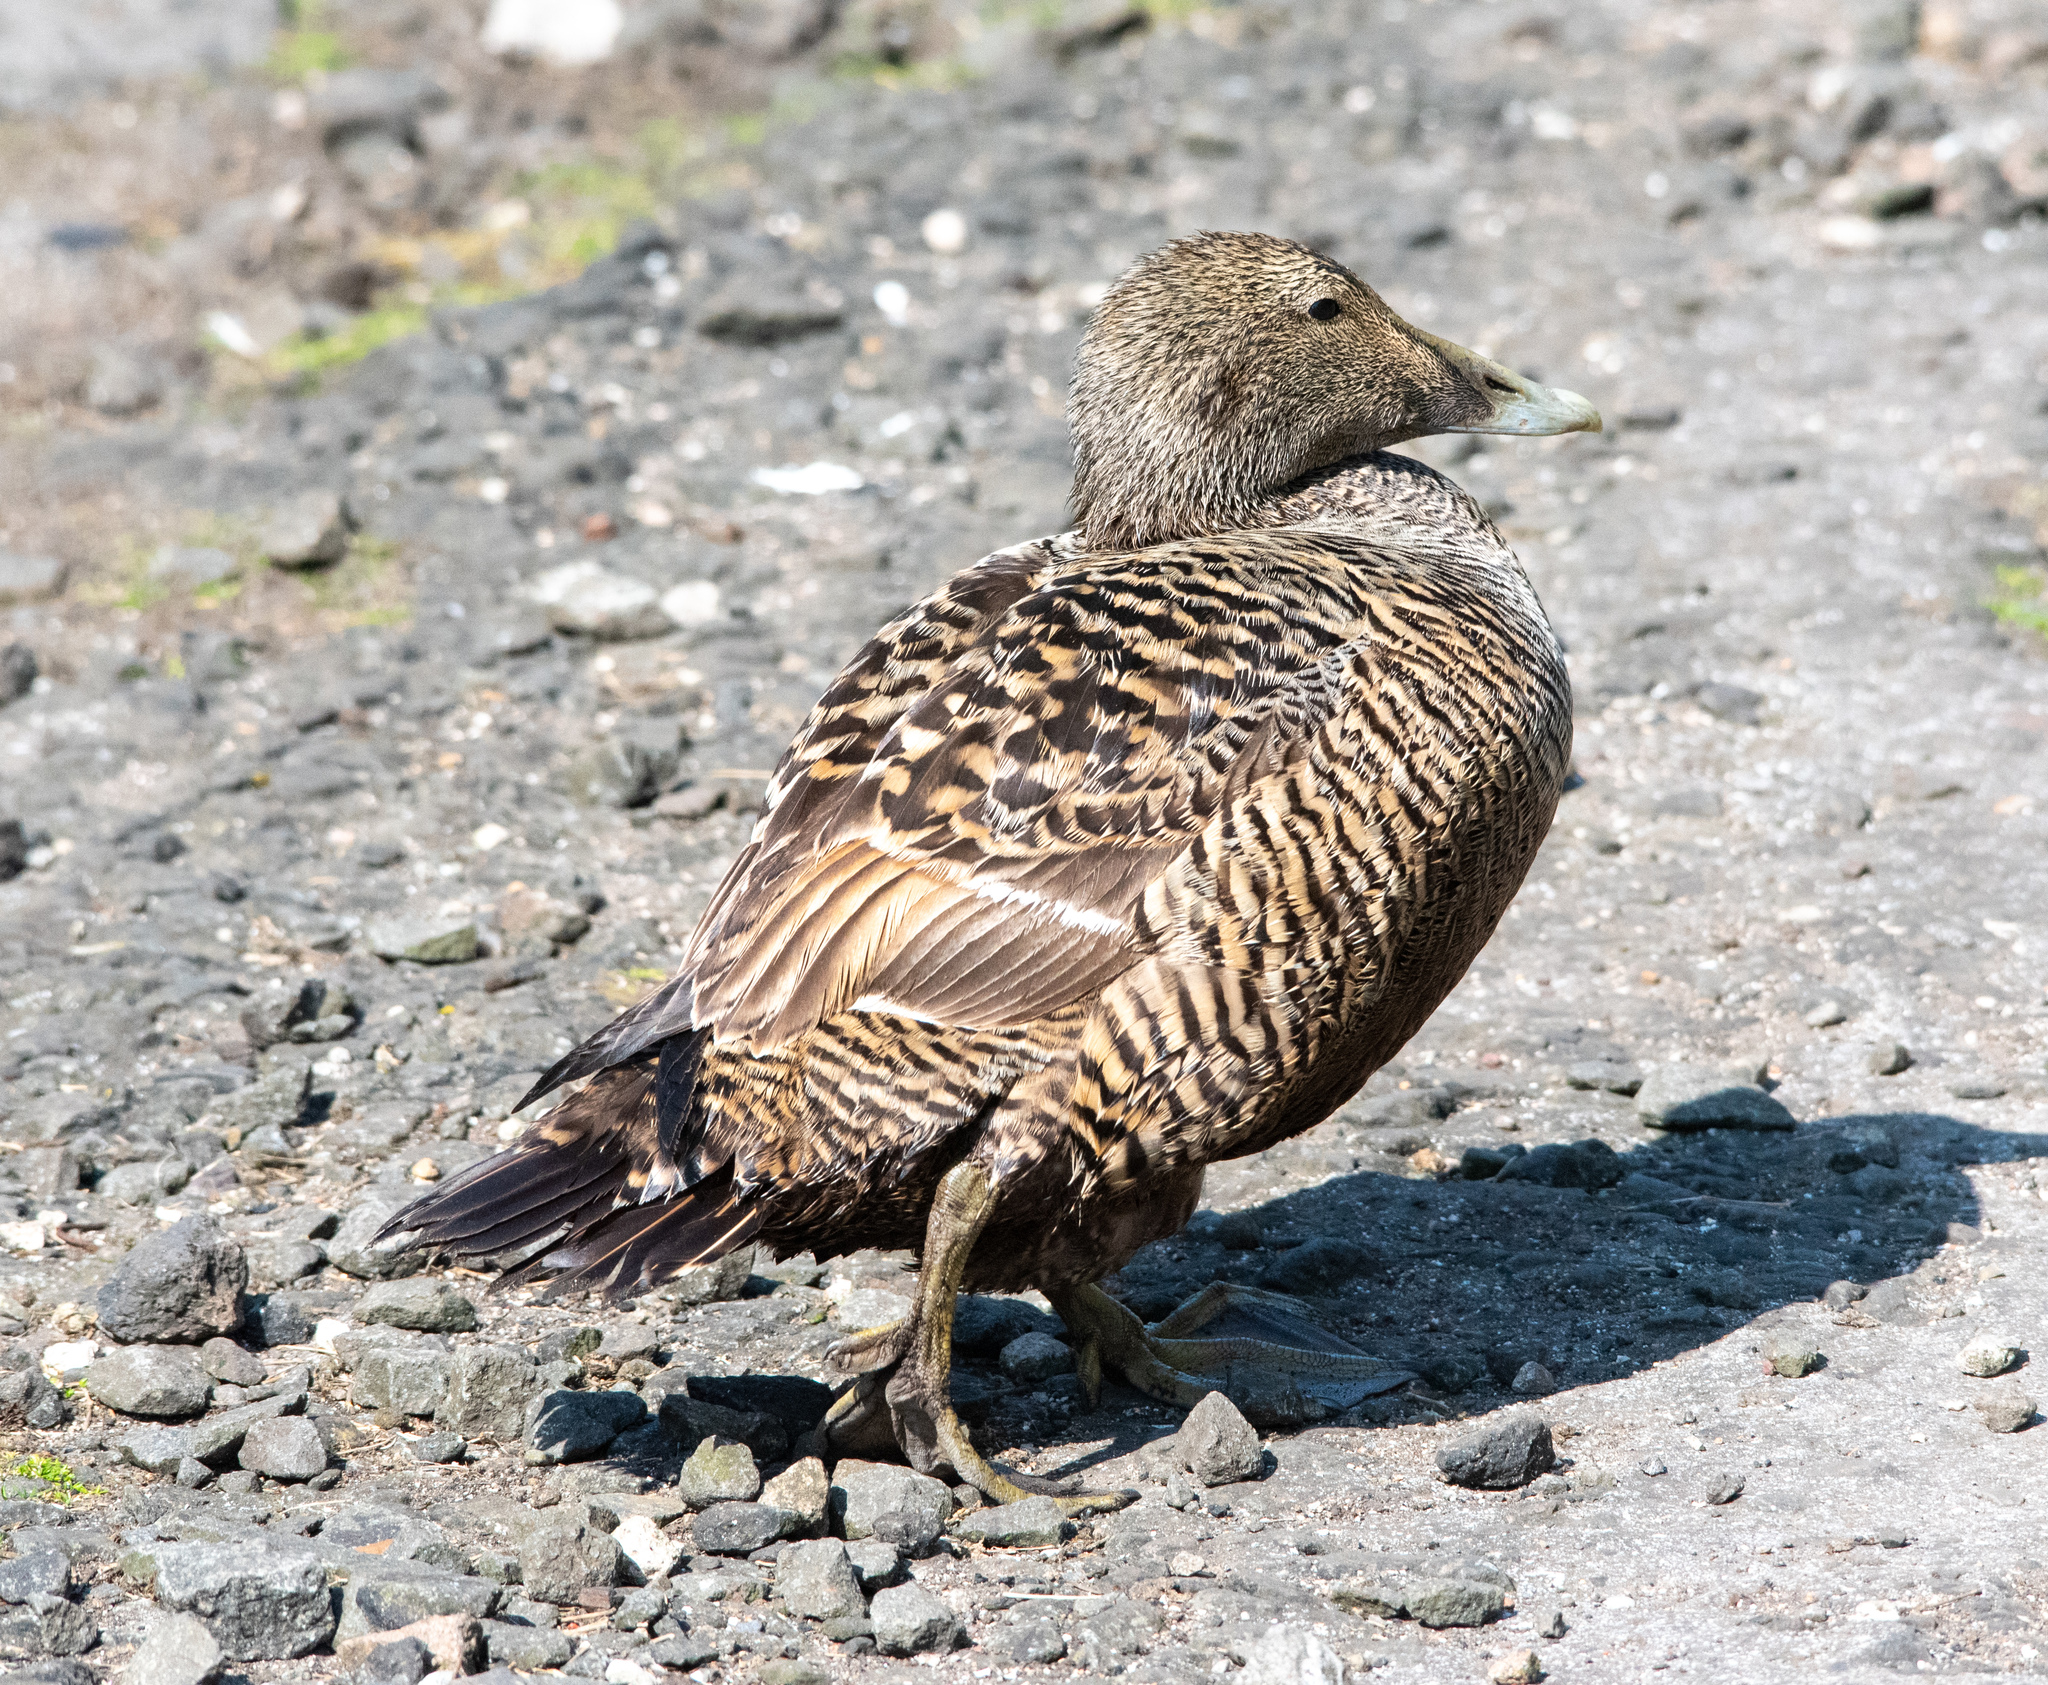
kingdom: Animalia
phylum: Chordata
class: Aves
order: Anseriformes
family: Anatidae
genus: Somateria
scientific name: Somateria mollissima
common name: Common eider
